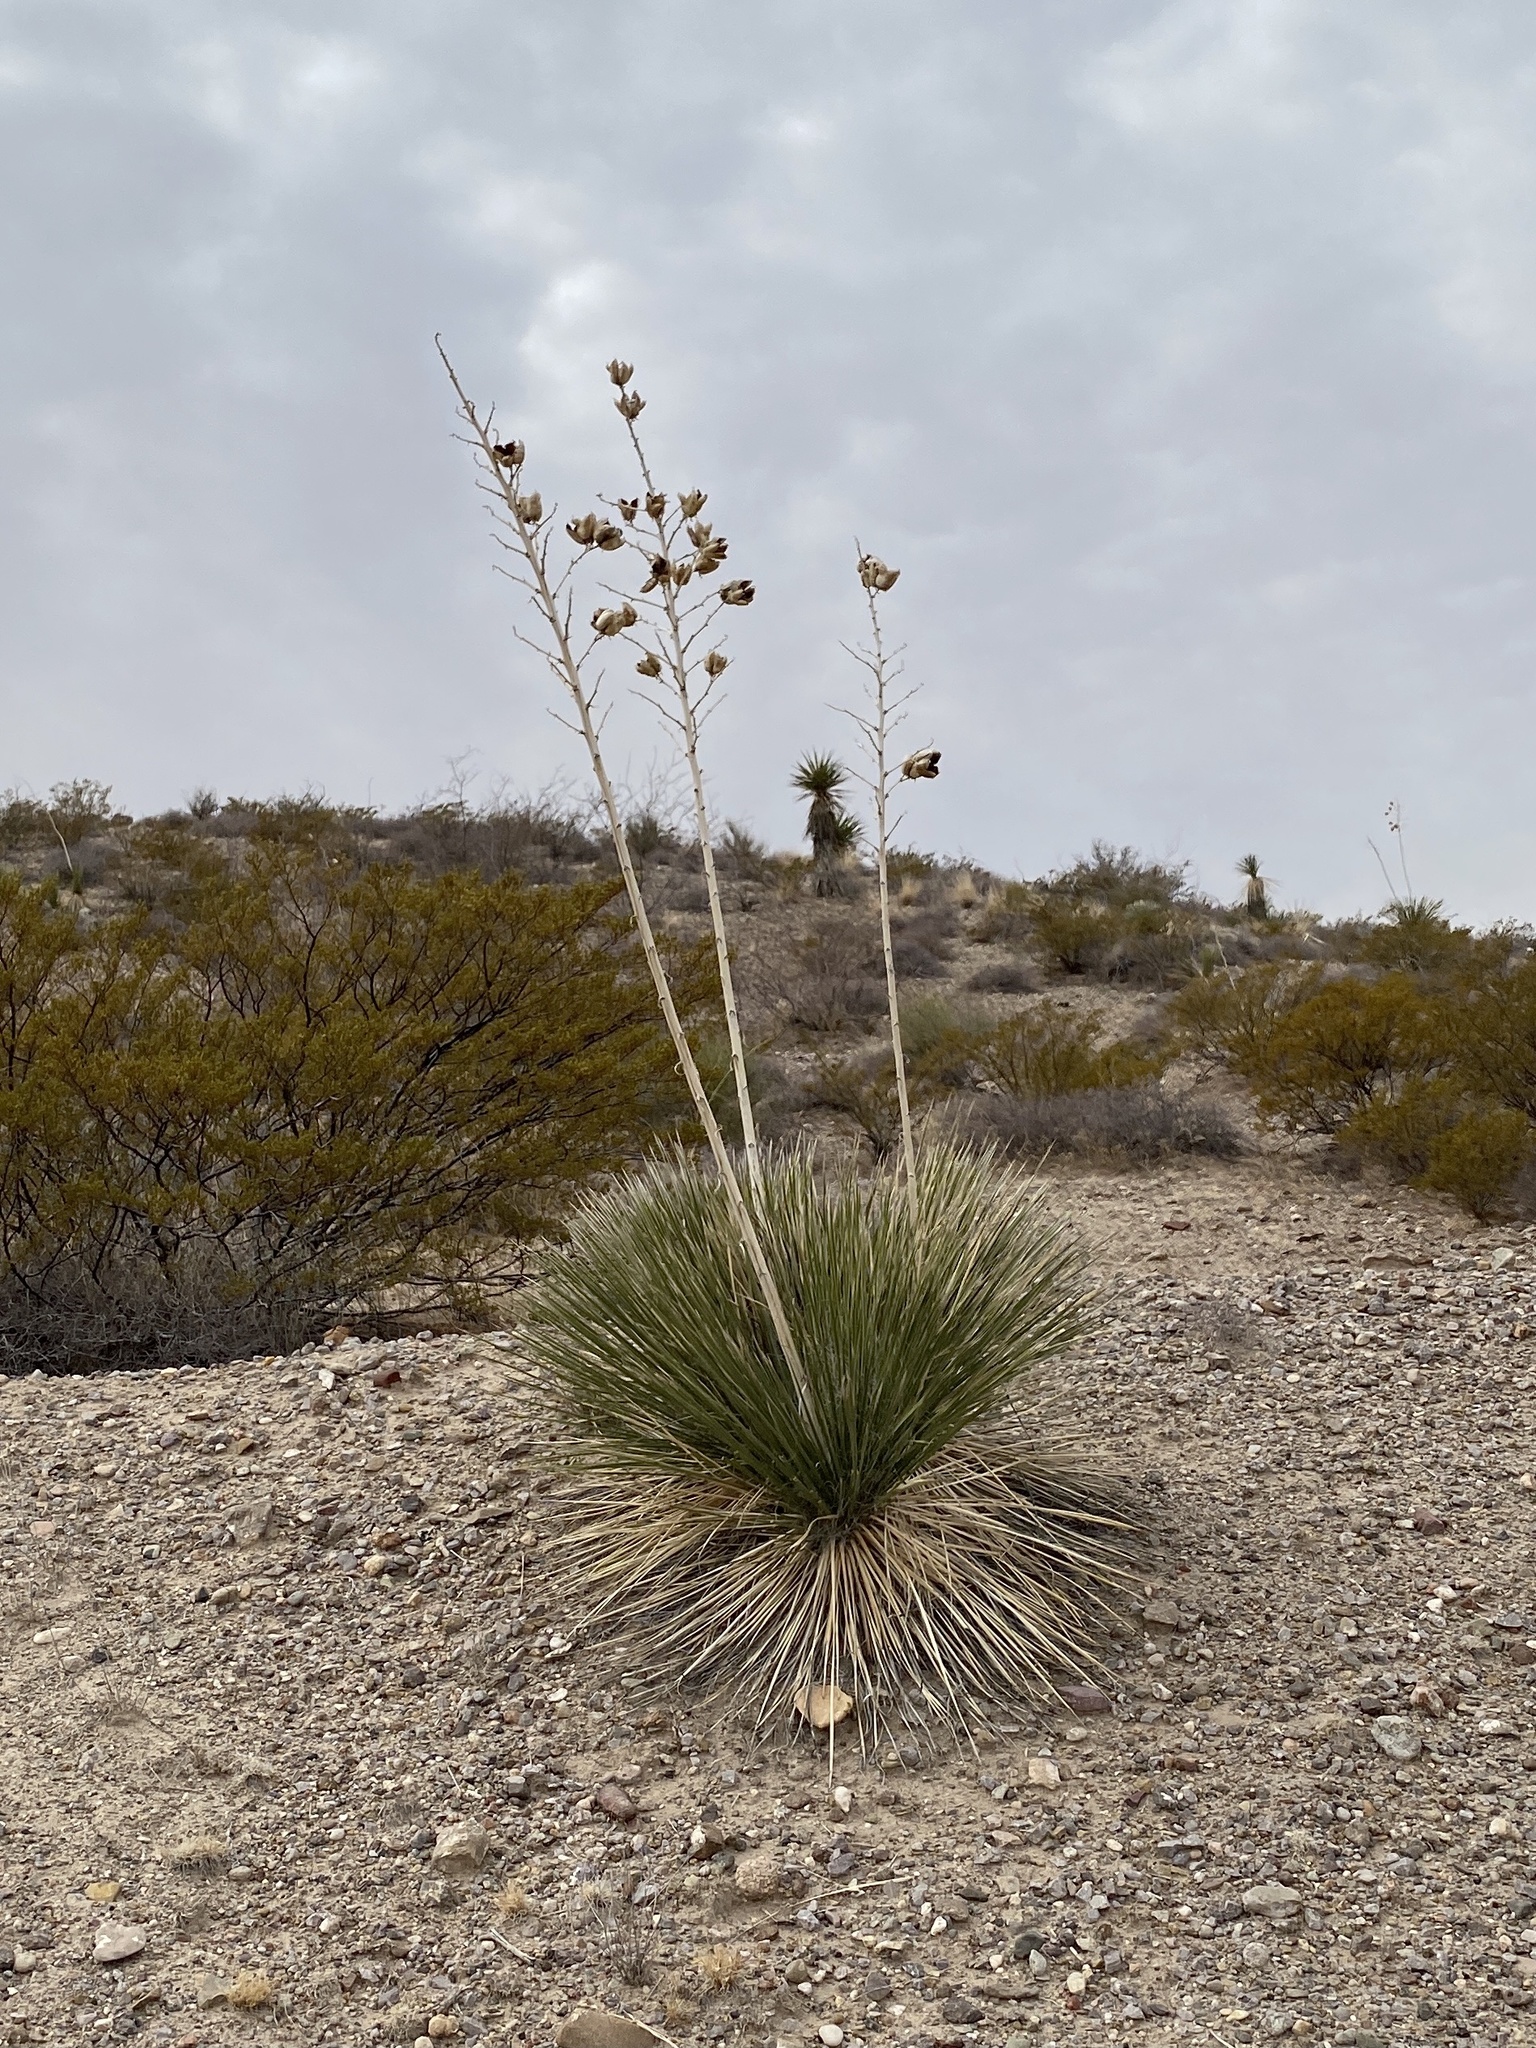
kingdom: Plantae
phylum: Tracheophyta
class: Liliopsida
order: Asparagales
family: Asparagaceae
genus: Yucca
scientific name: Yucca elata
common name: Palmella
